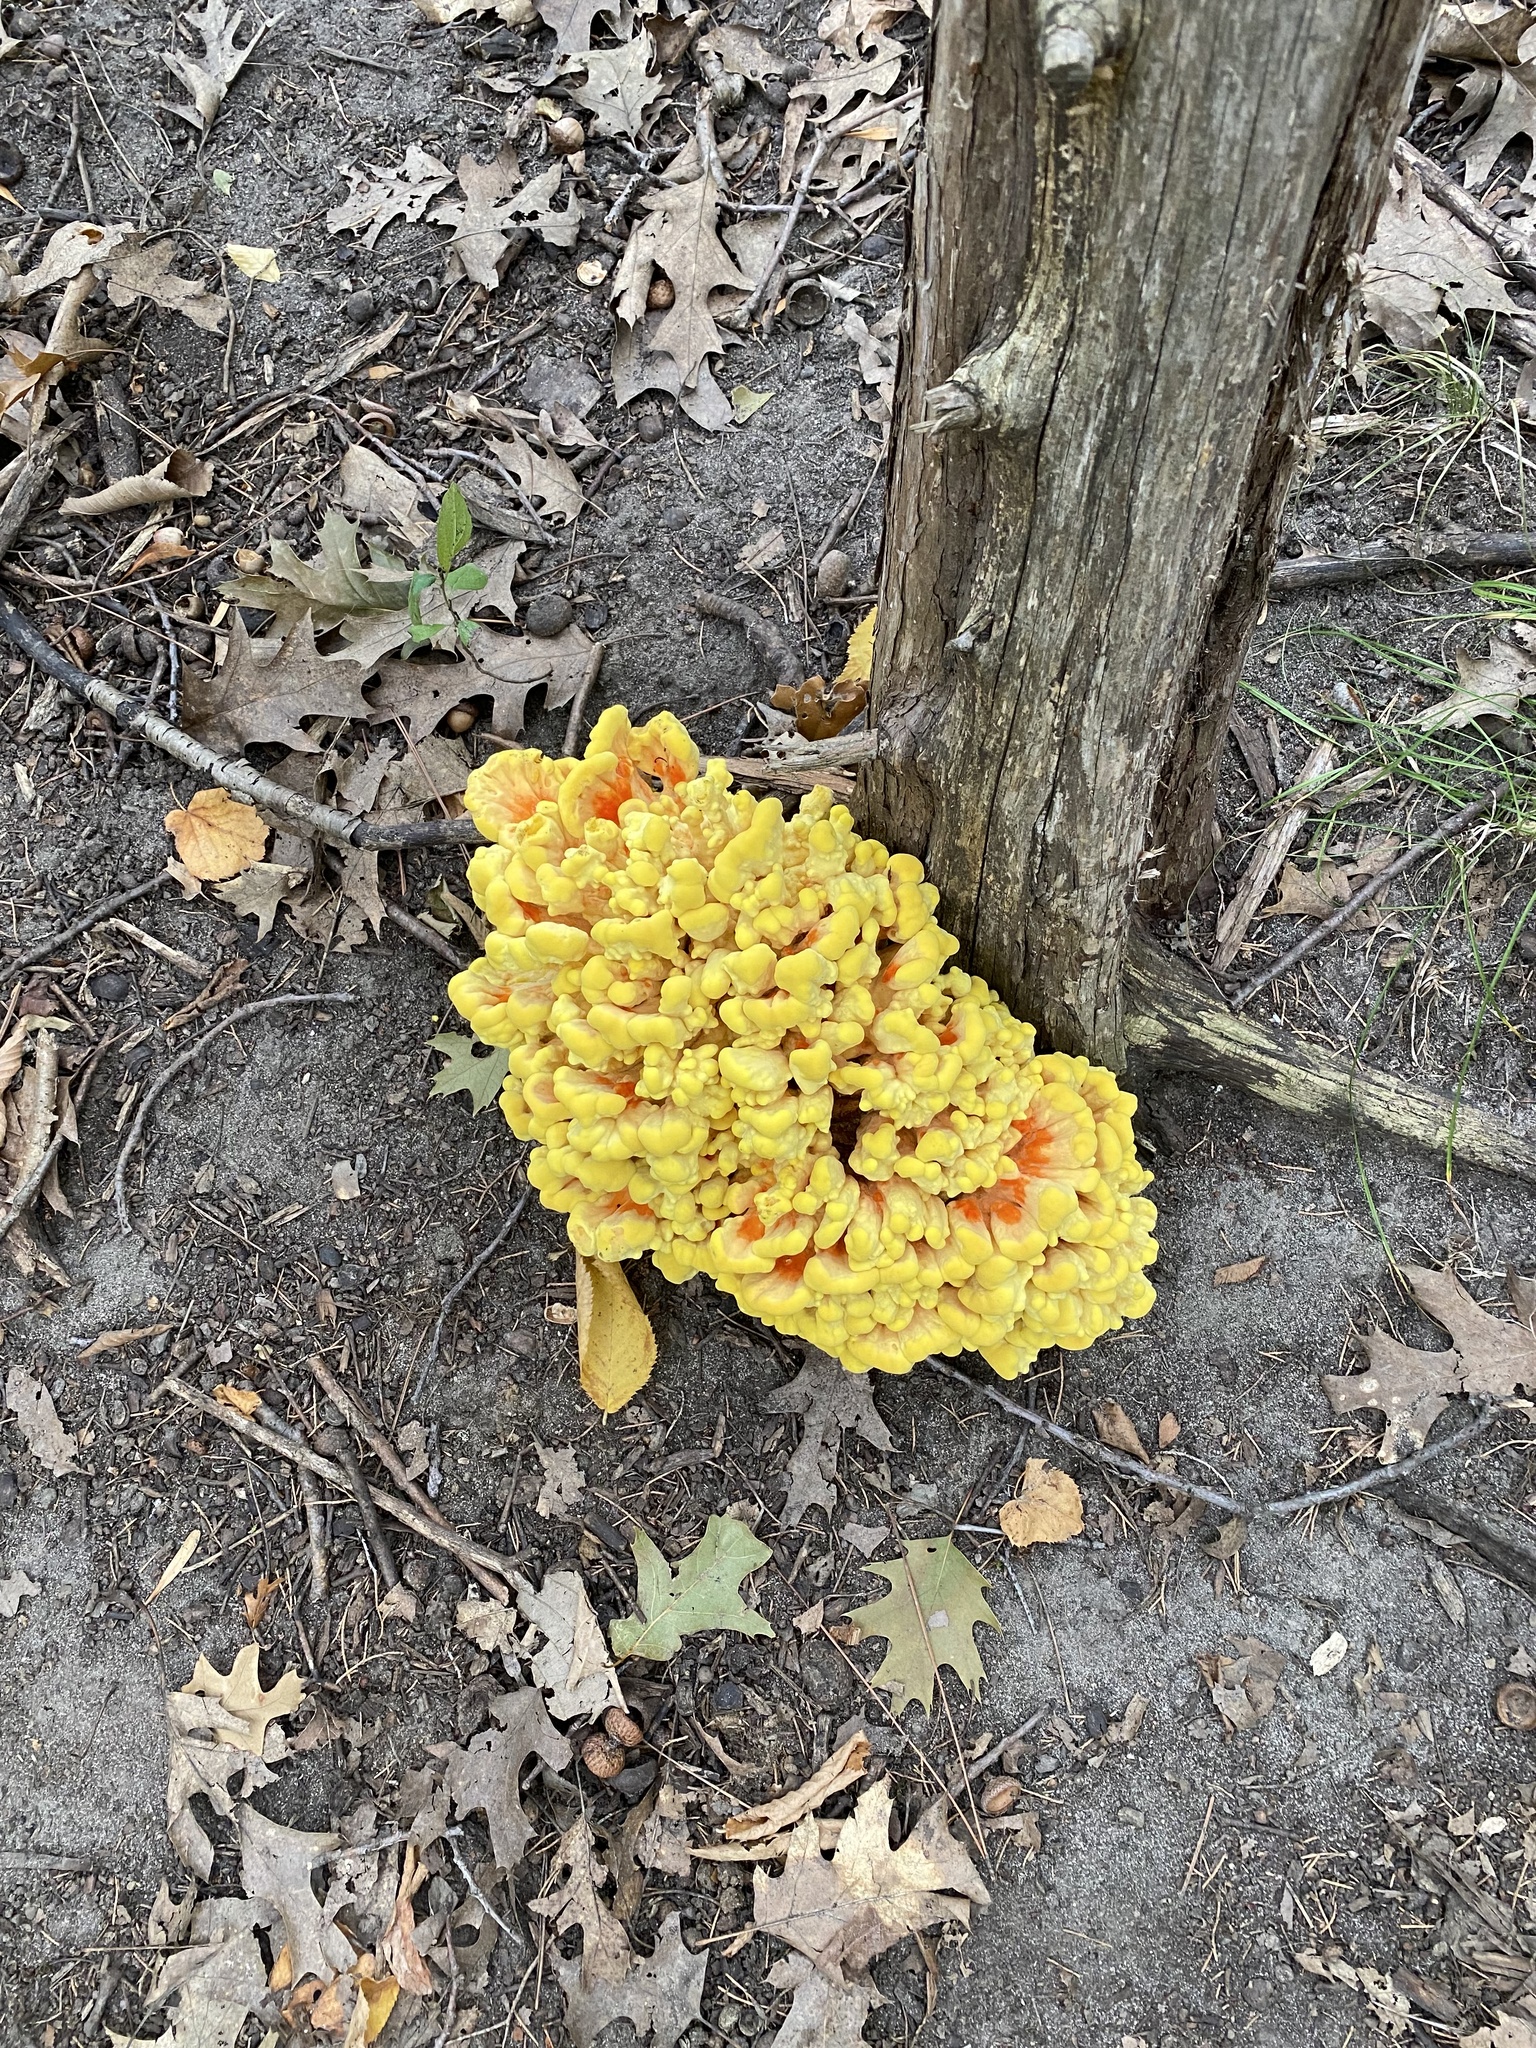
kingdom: Fungi
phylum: Basidiomycota
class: Agaricomycetes
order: Polyporales
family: Laetiporaceae
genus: Laetiporus
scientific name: Laetiporus sulphureus
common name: Chicken of the woods
